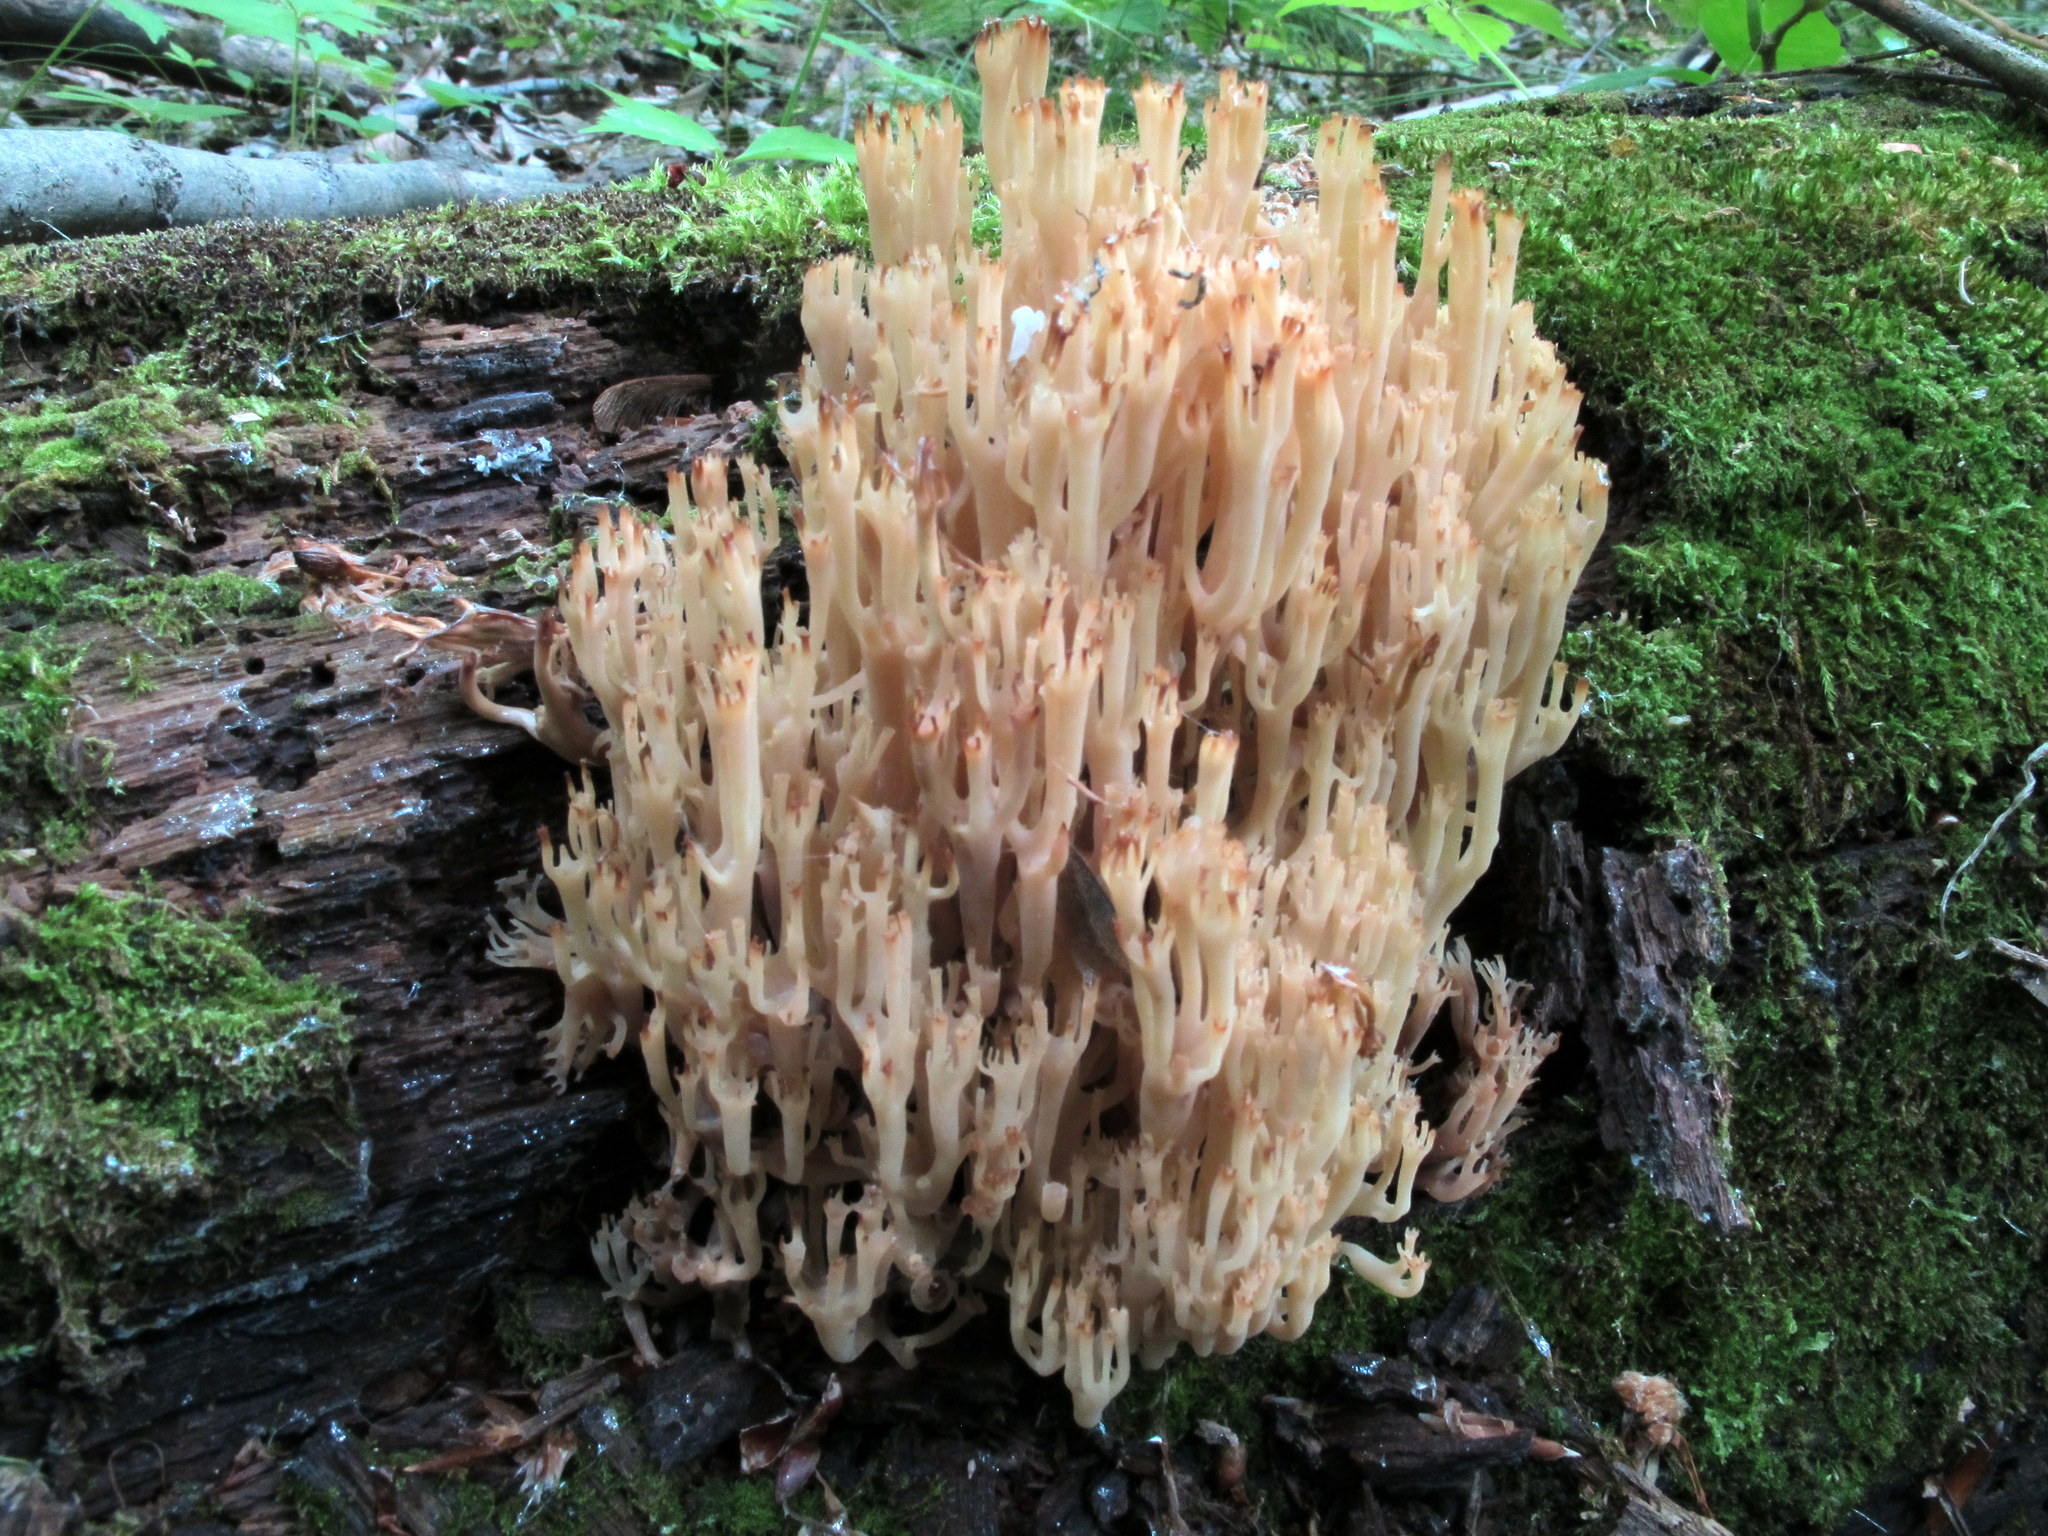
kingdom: Fungi
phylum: Basidiomycota
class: Agaricomycetes
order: Russulales
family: Auriscalpiaceae
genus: Artomyces
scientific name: Artomyces pyxidatus
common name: Crown-tipped coral fungus
